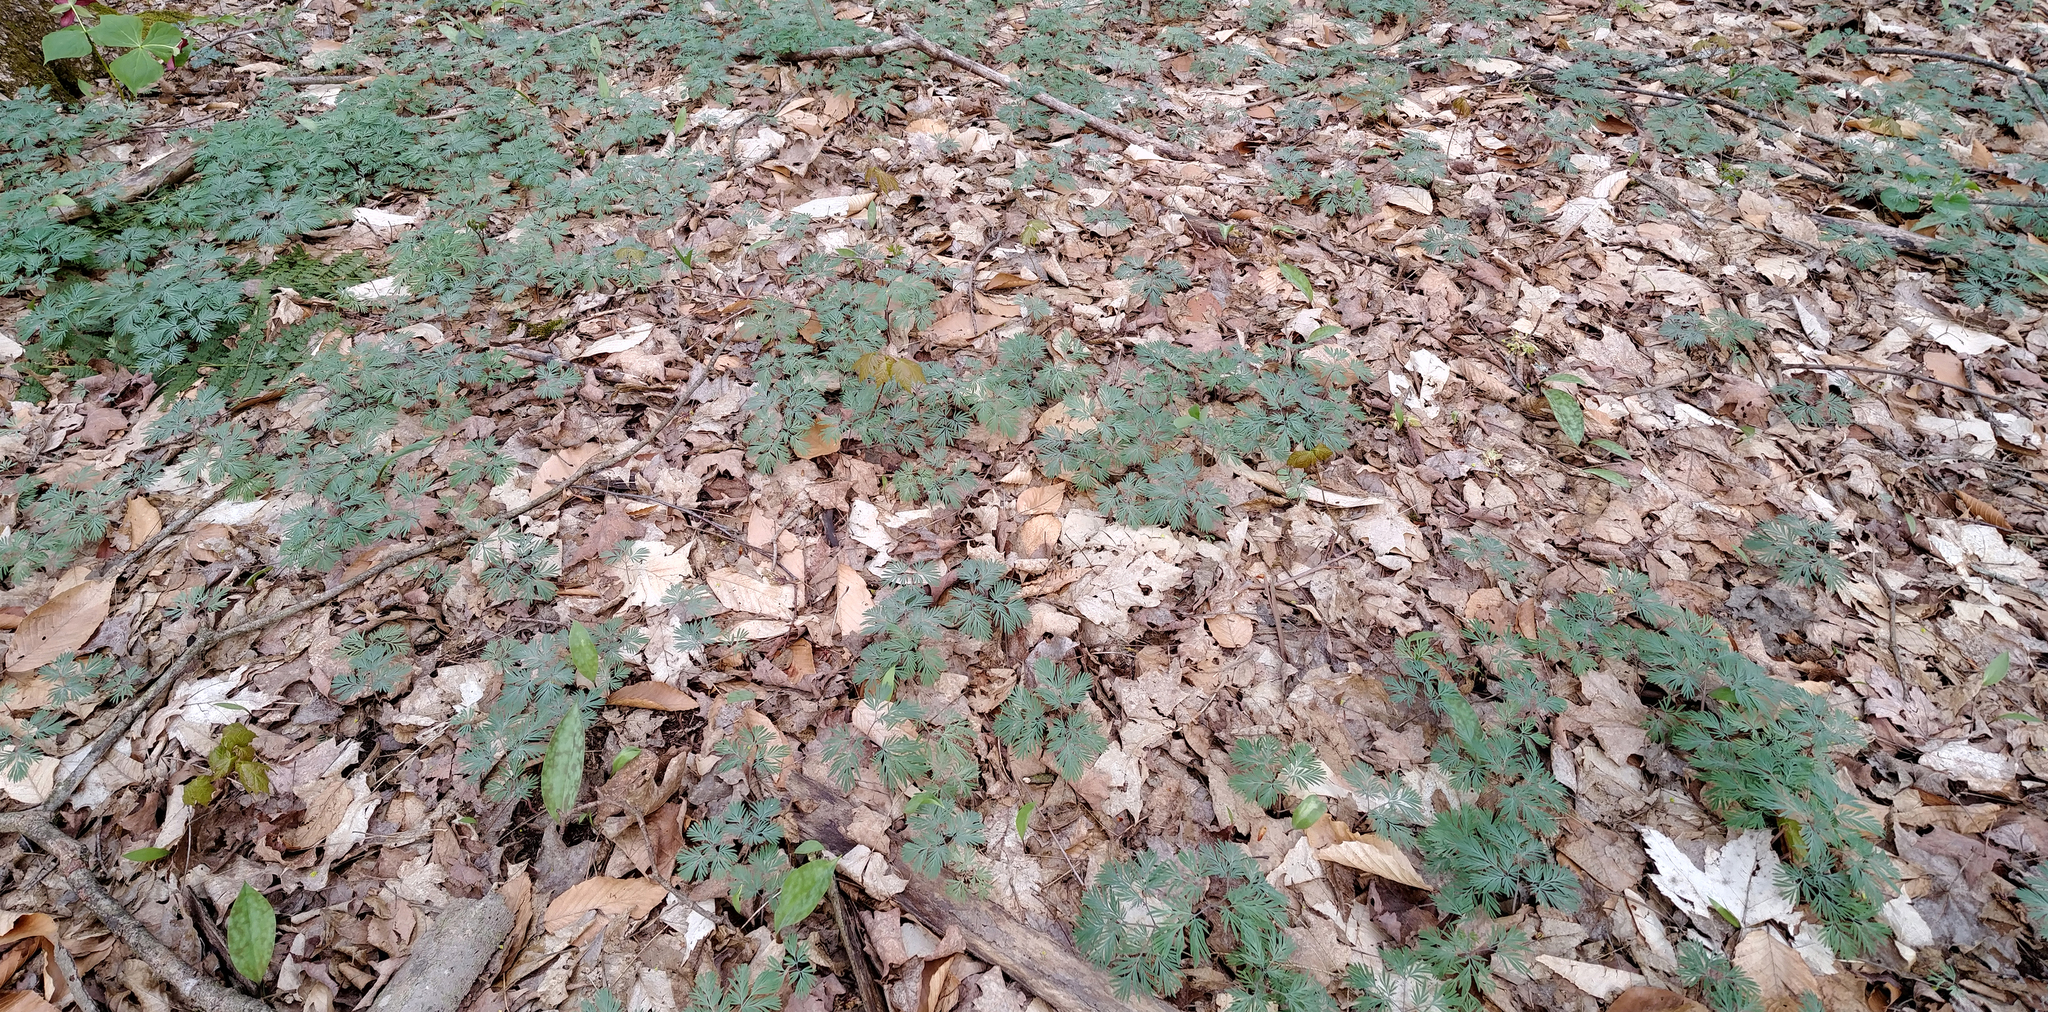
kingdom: Plantae
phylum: Tracheophyta
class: Magnoliopsida
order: Ranunculales
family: Papaveraceae
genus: Dicentra
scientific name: Dicentra cucullaria
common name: Dutchman's breeches
